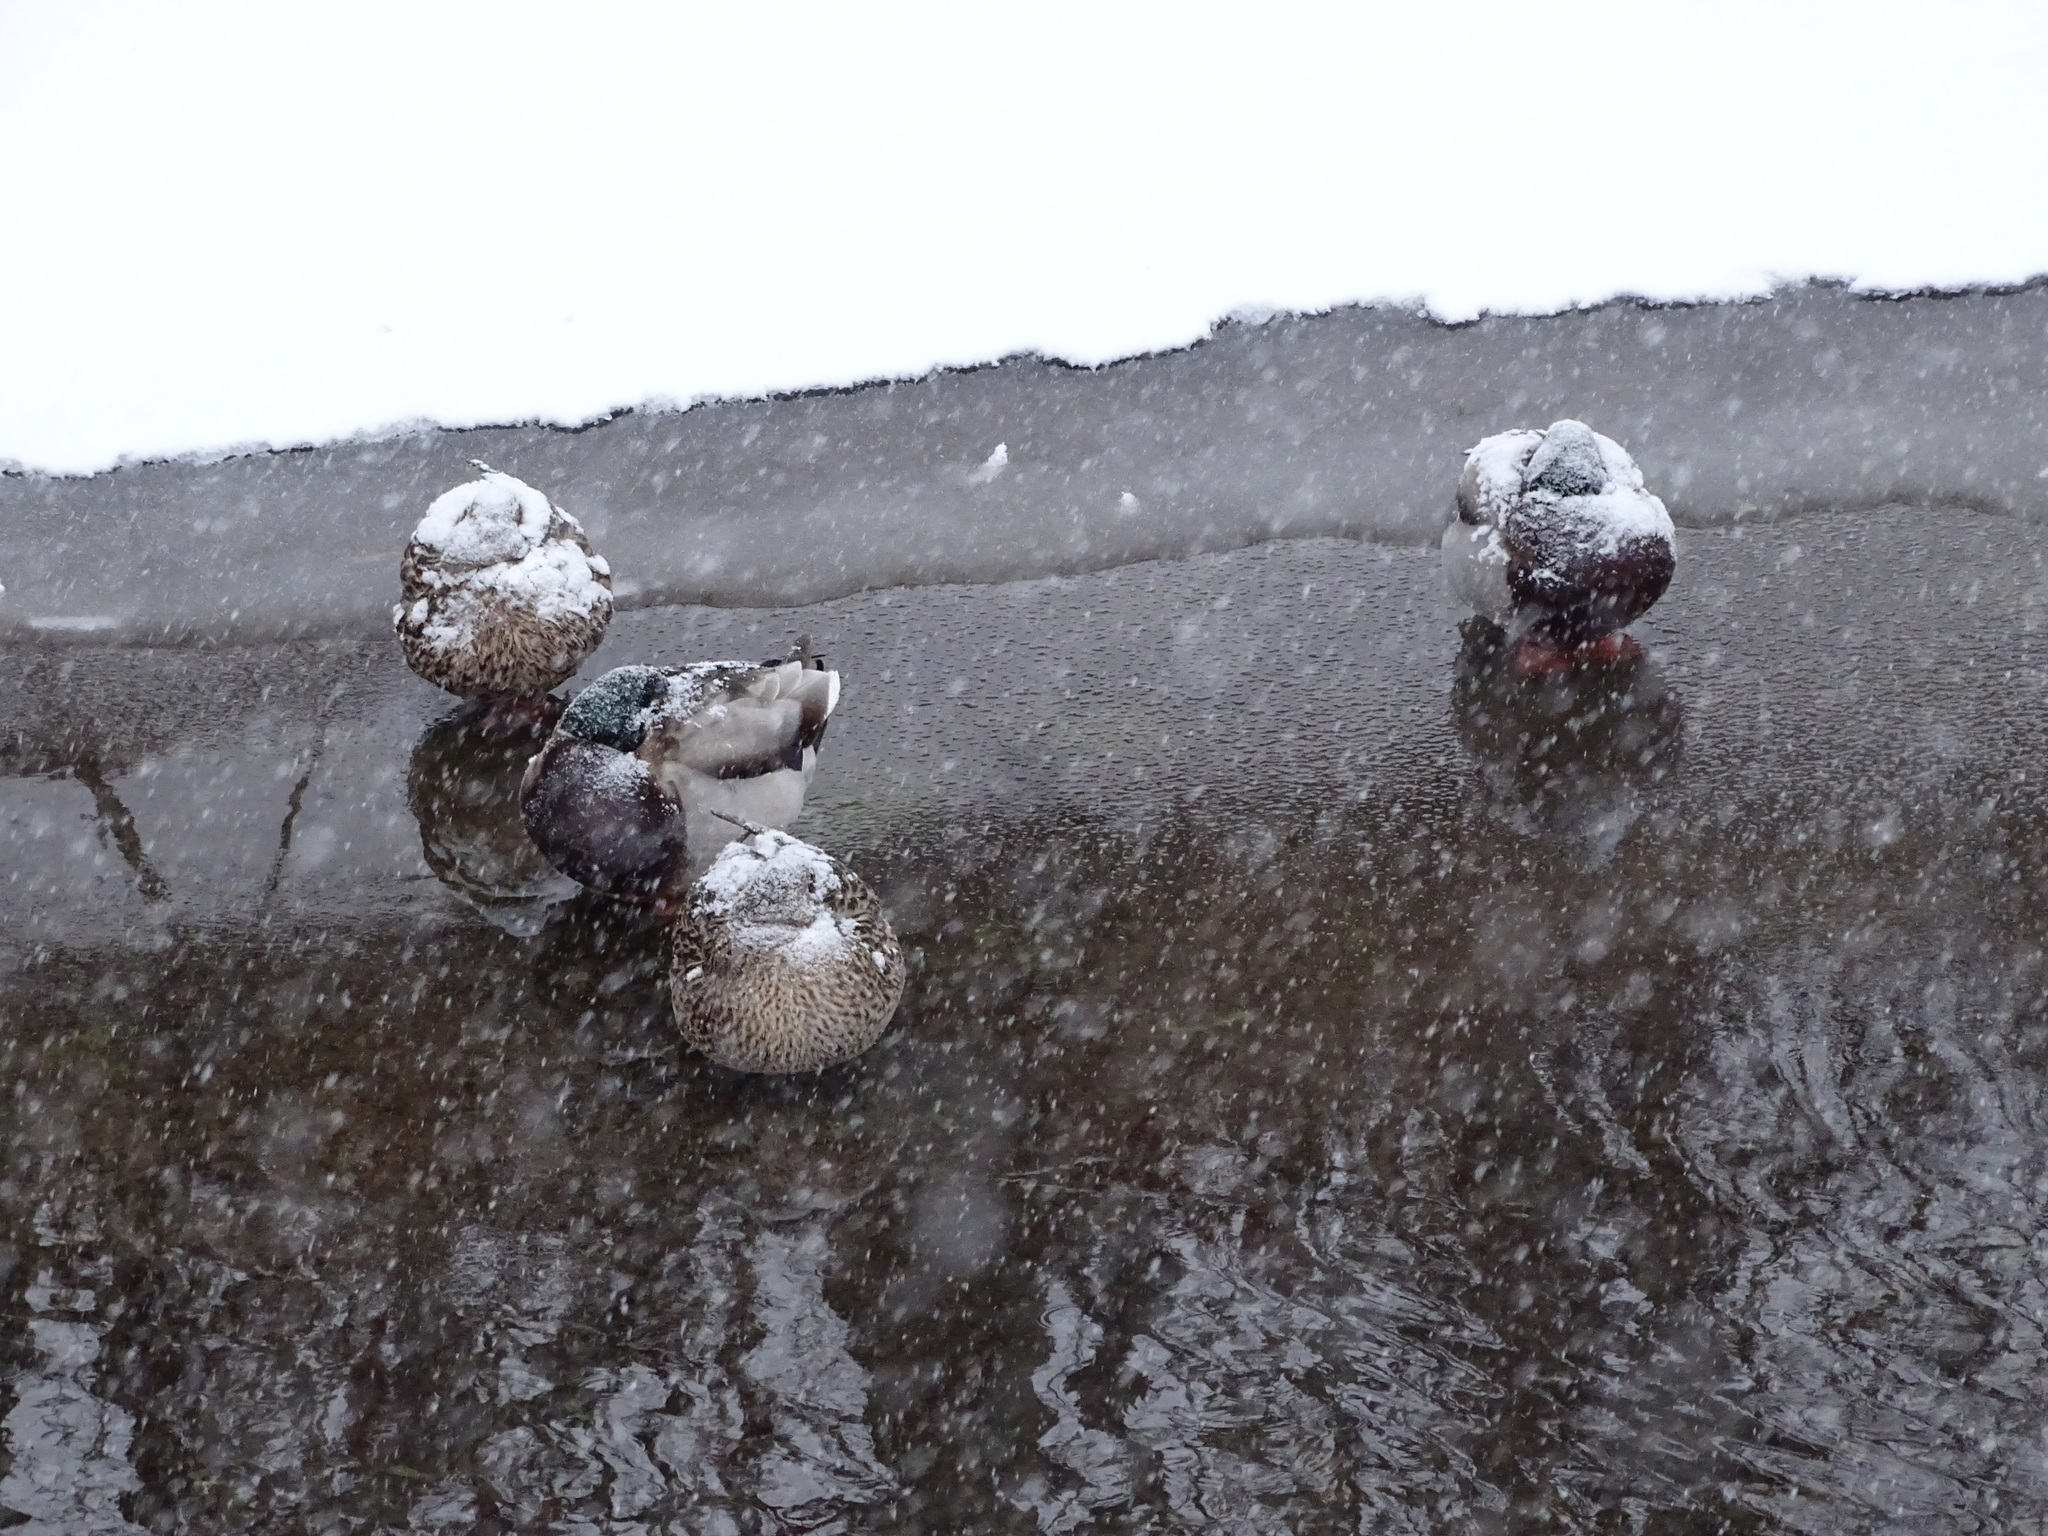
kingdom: Animalia
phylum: Chordata
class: Aves
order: Anseriformes
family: Anatidae
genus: Anas
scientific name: Anas platyrhynchos
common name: Mallard
